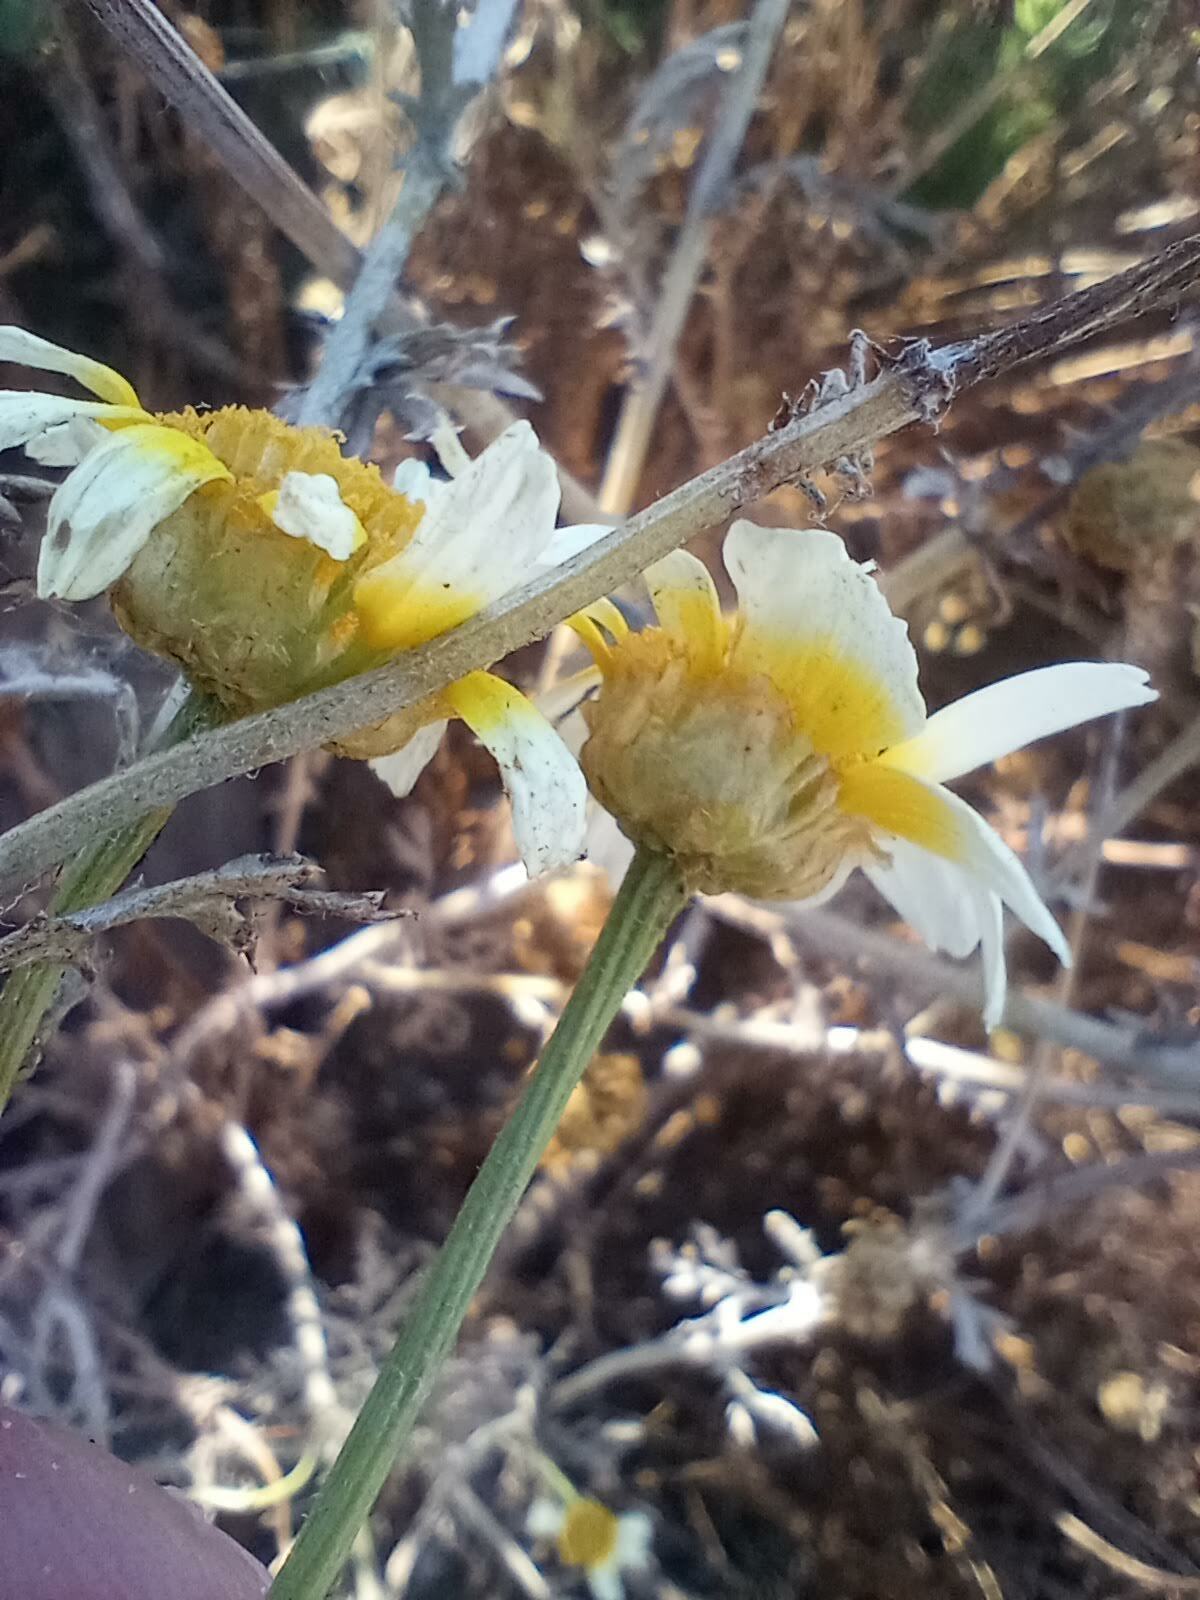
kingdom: Plantae
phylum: Tracheophyta
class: Magnoliopsida
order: Asterales
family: Asteraceae
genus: Glebionis
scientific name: Glebionis coronaria
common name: Crowndaisy
